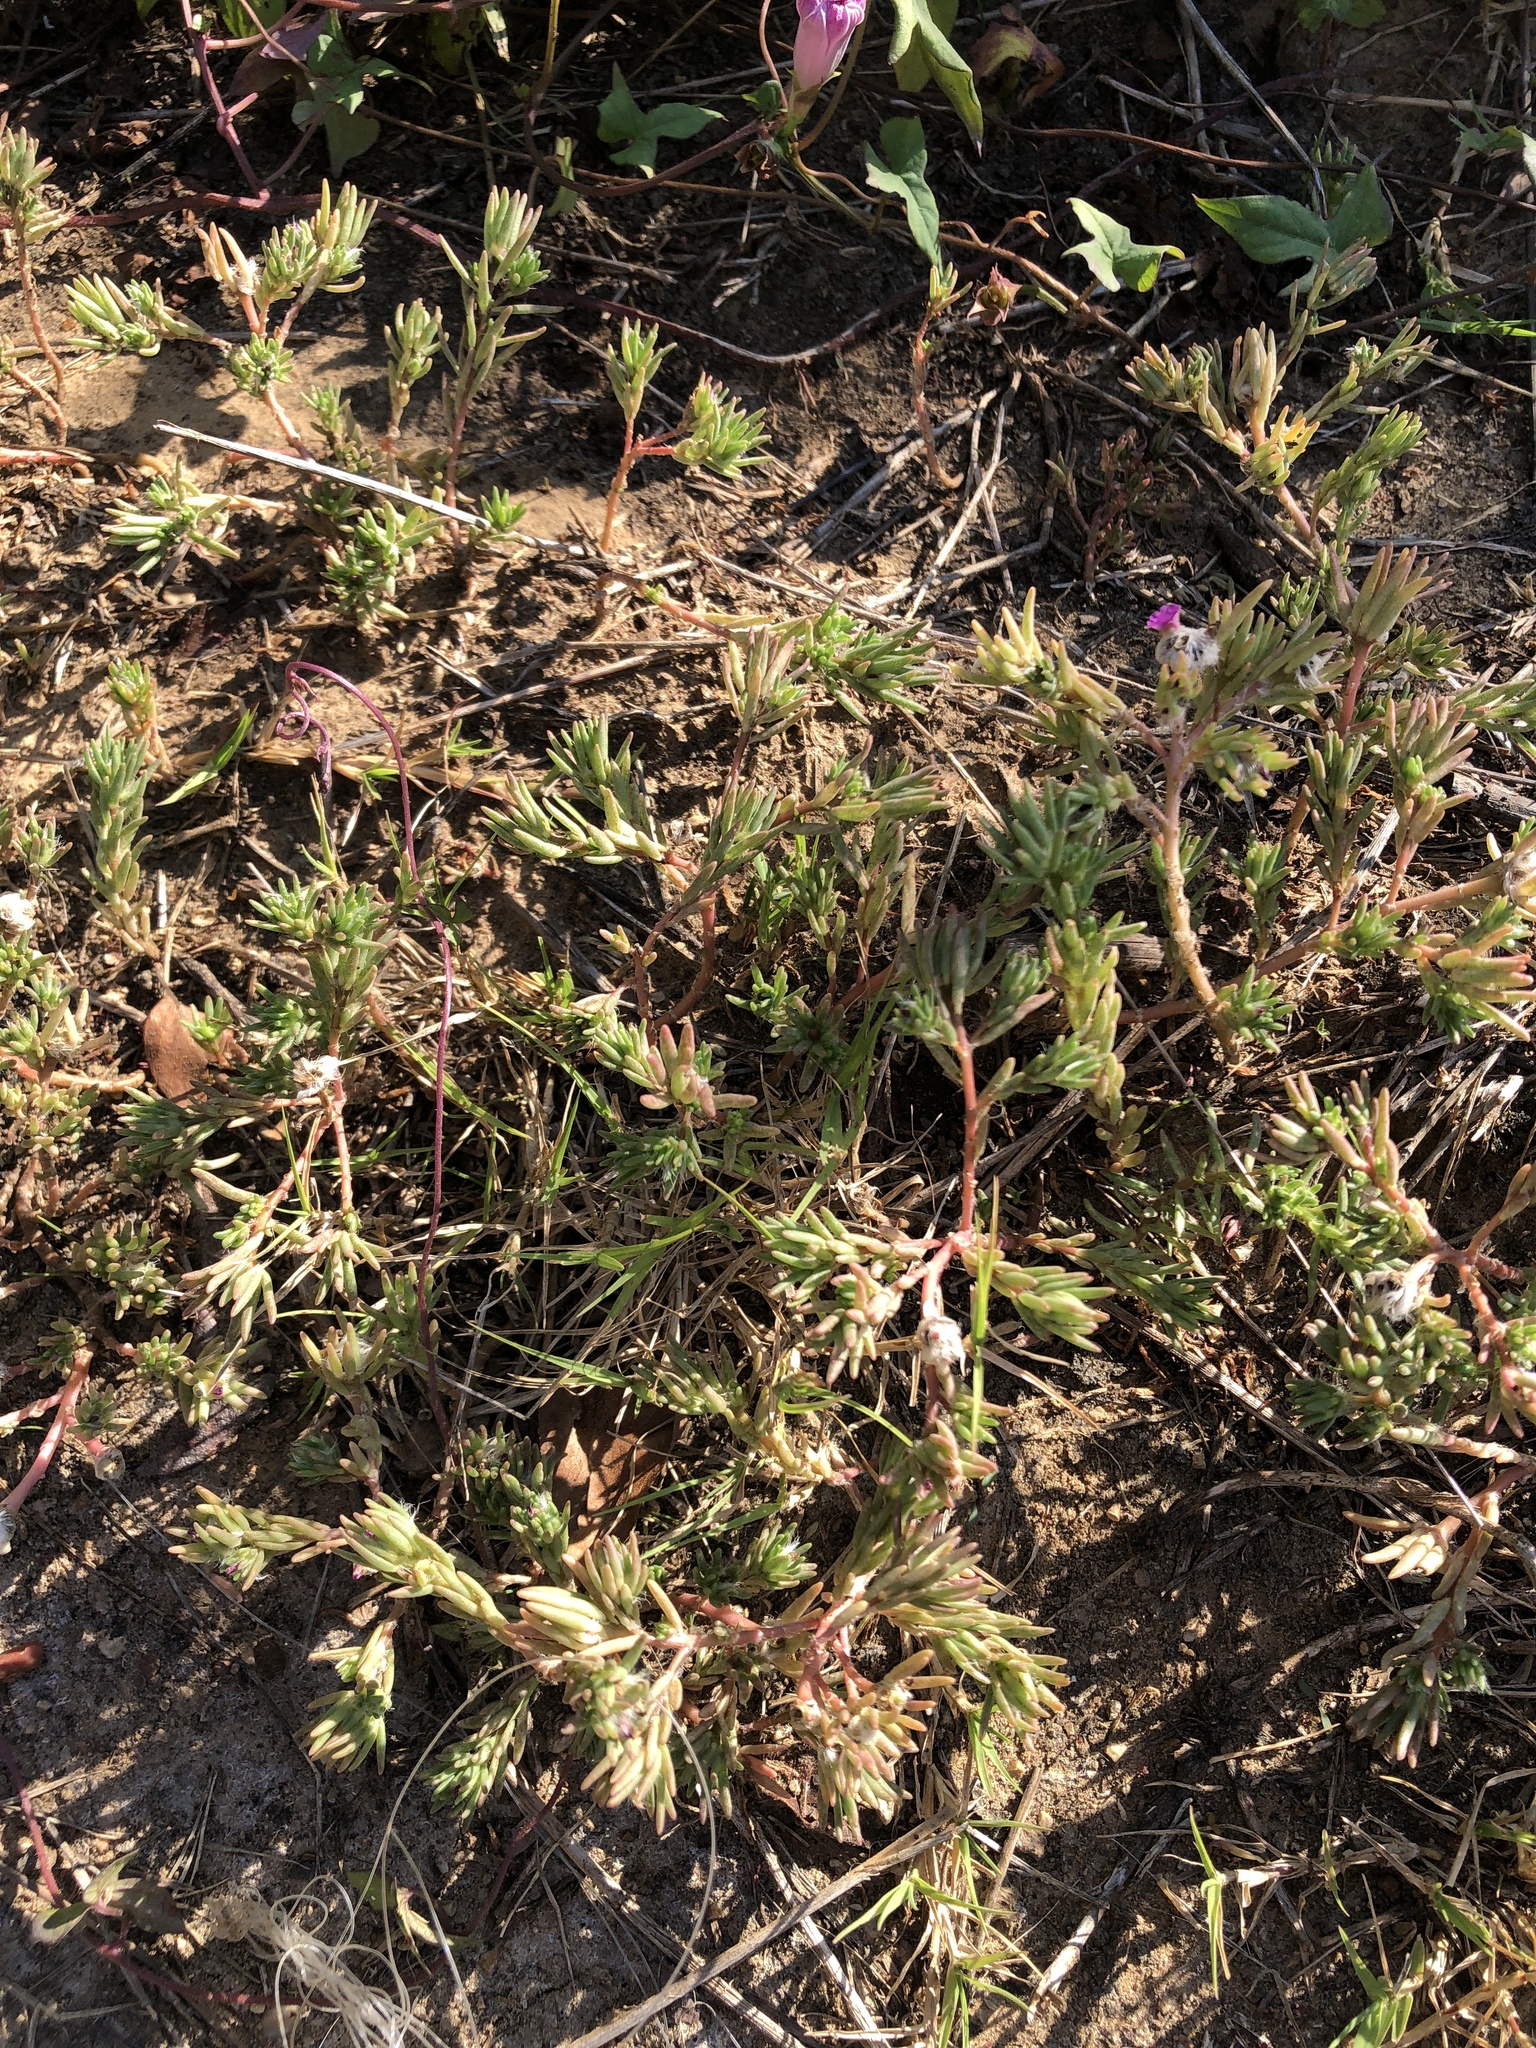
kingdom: Plantae
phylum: Tracheophyta
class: Magnoliopsida
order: Caryophyllales
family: Portulacaceae
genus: Portulaca
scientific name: Portulaca pilosa
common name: Kiss me quick
